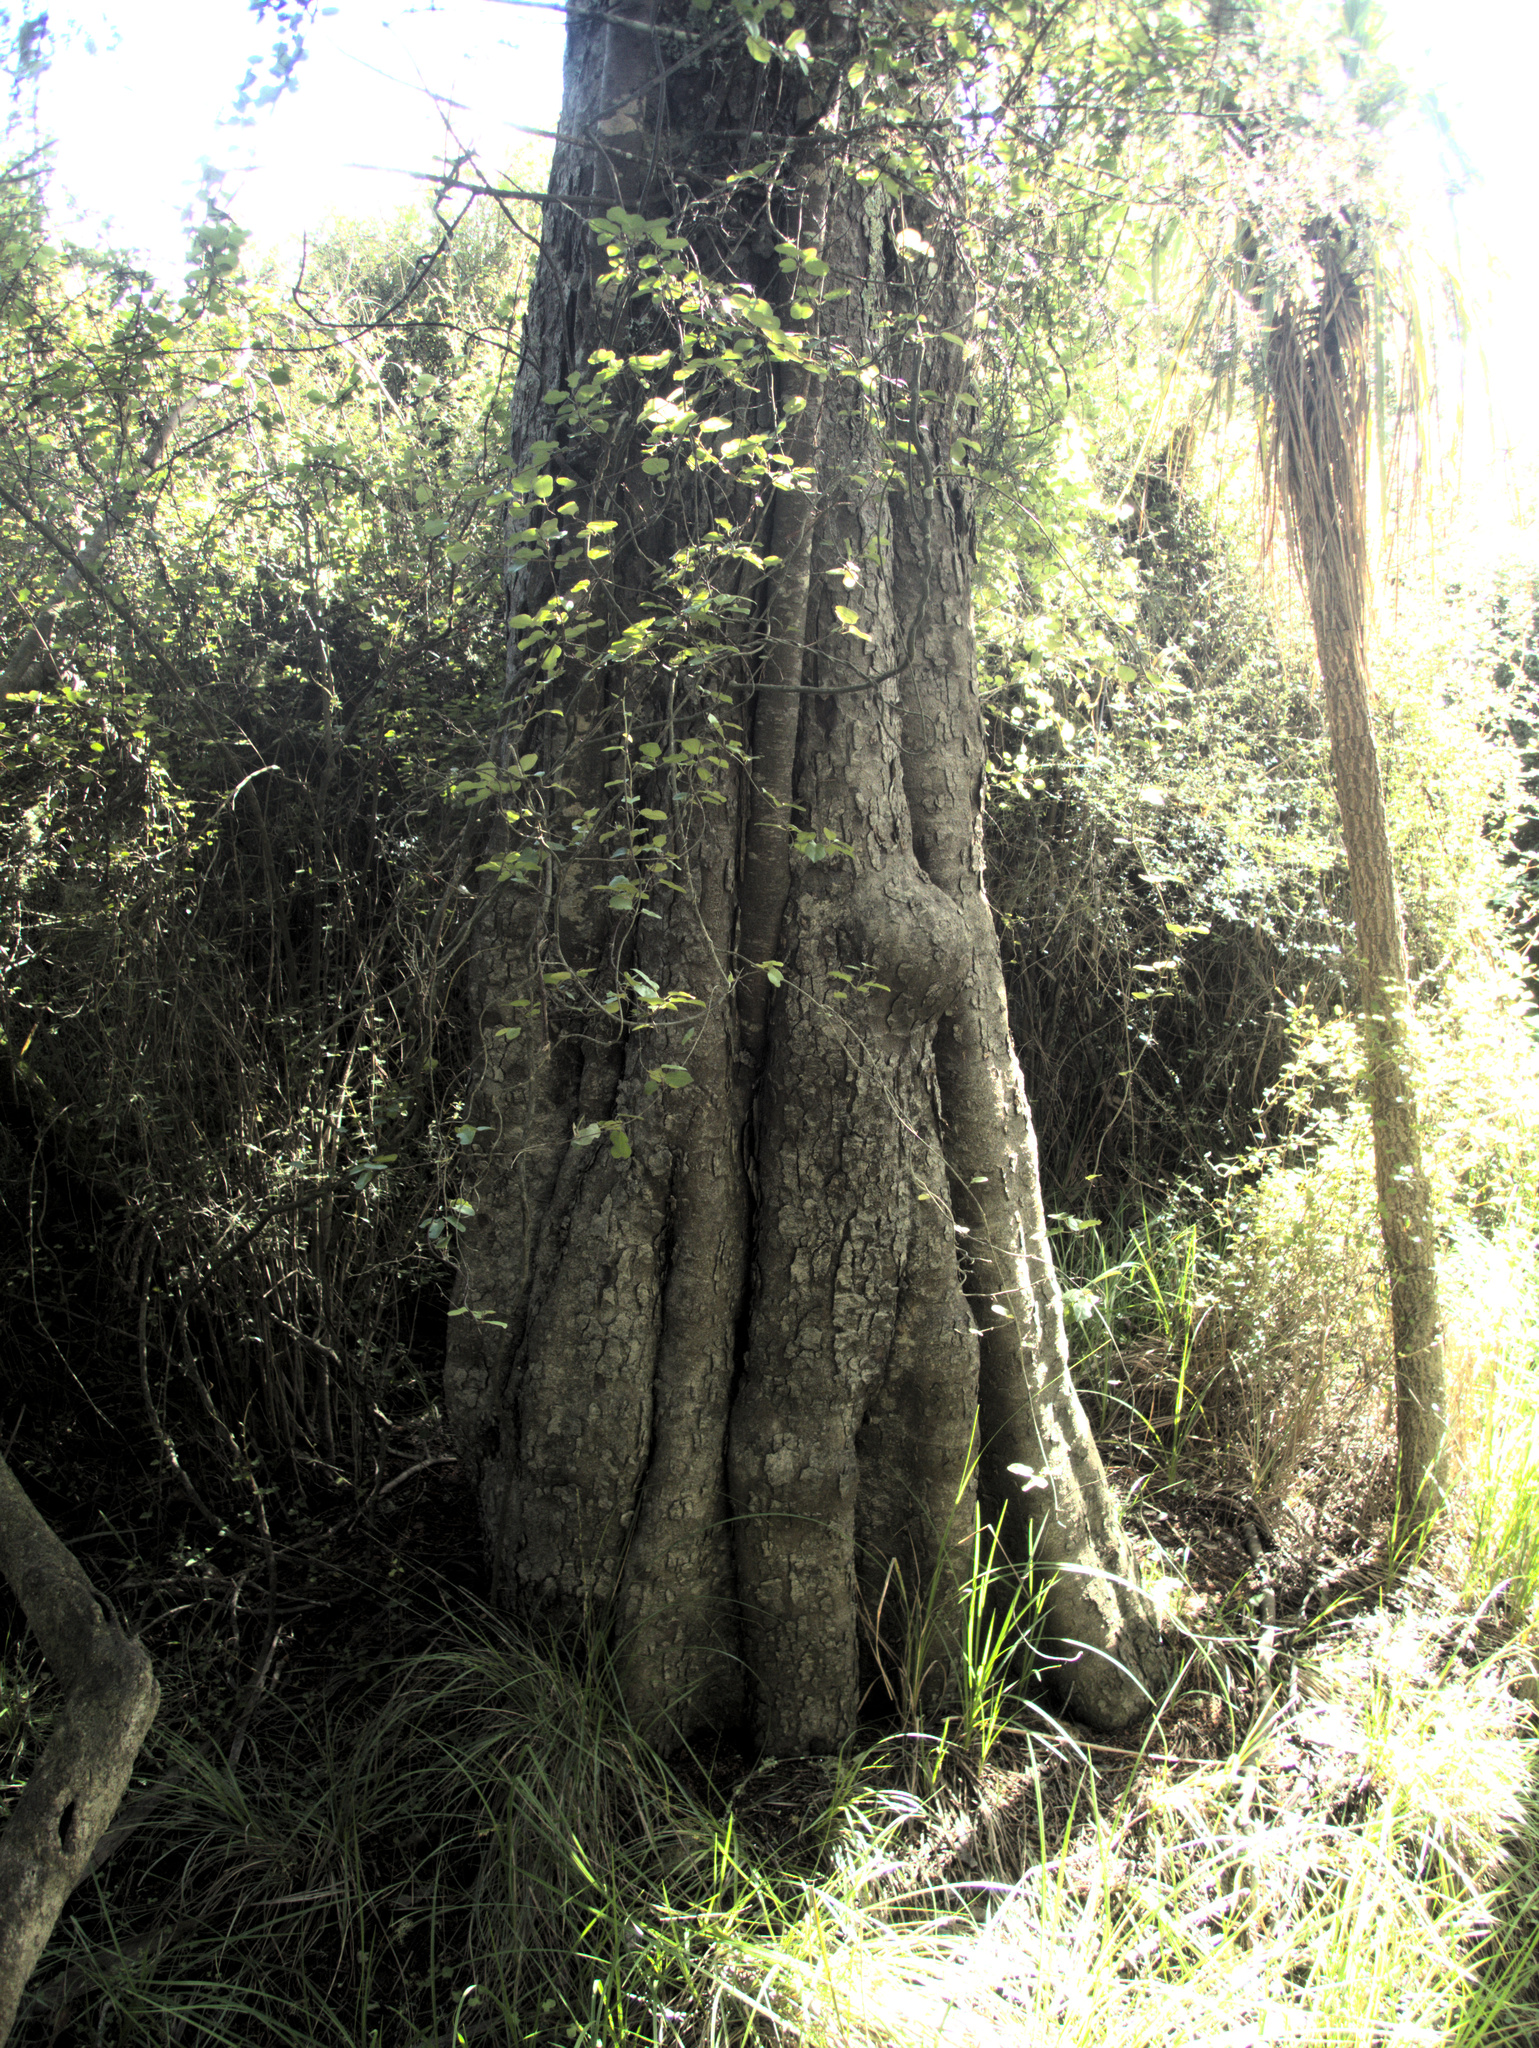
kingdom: Plantae
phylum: Tracheophyta
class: Pinopsida
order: Pinales
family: Podocarpaceae
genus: Dacrycarpus
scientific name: Dacrycarpus dacrydioides
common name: White pine
